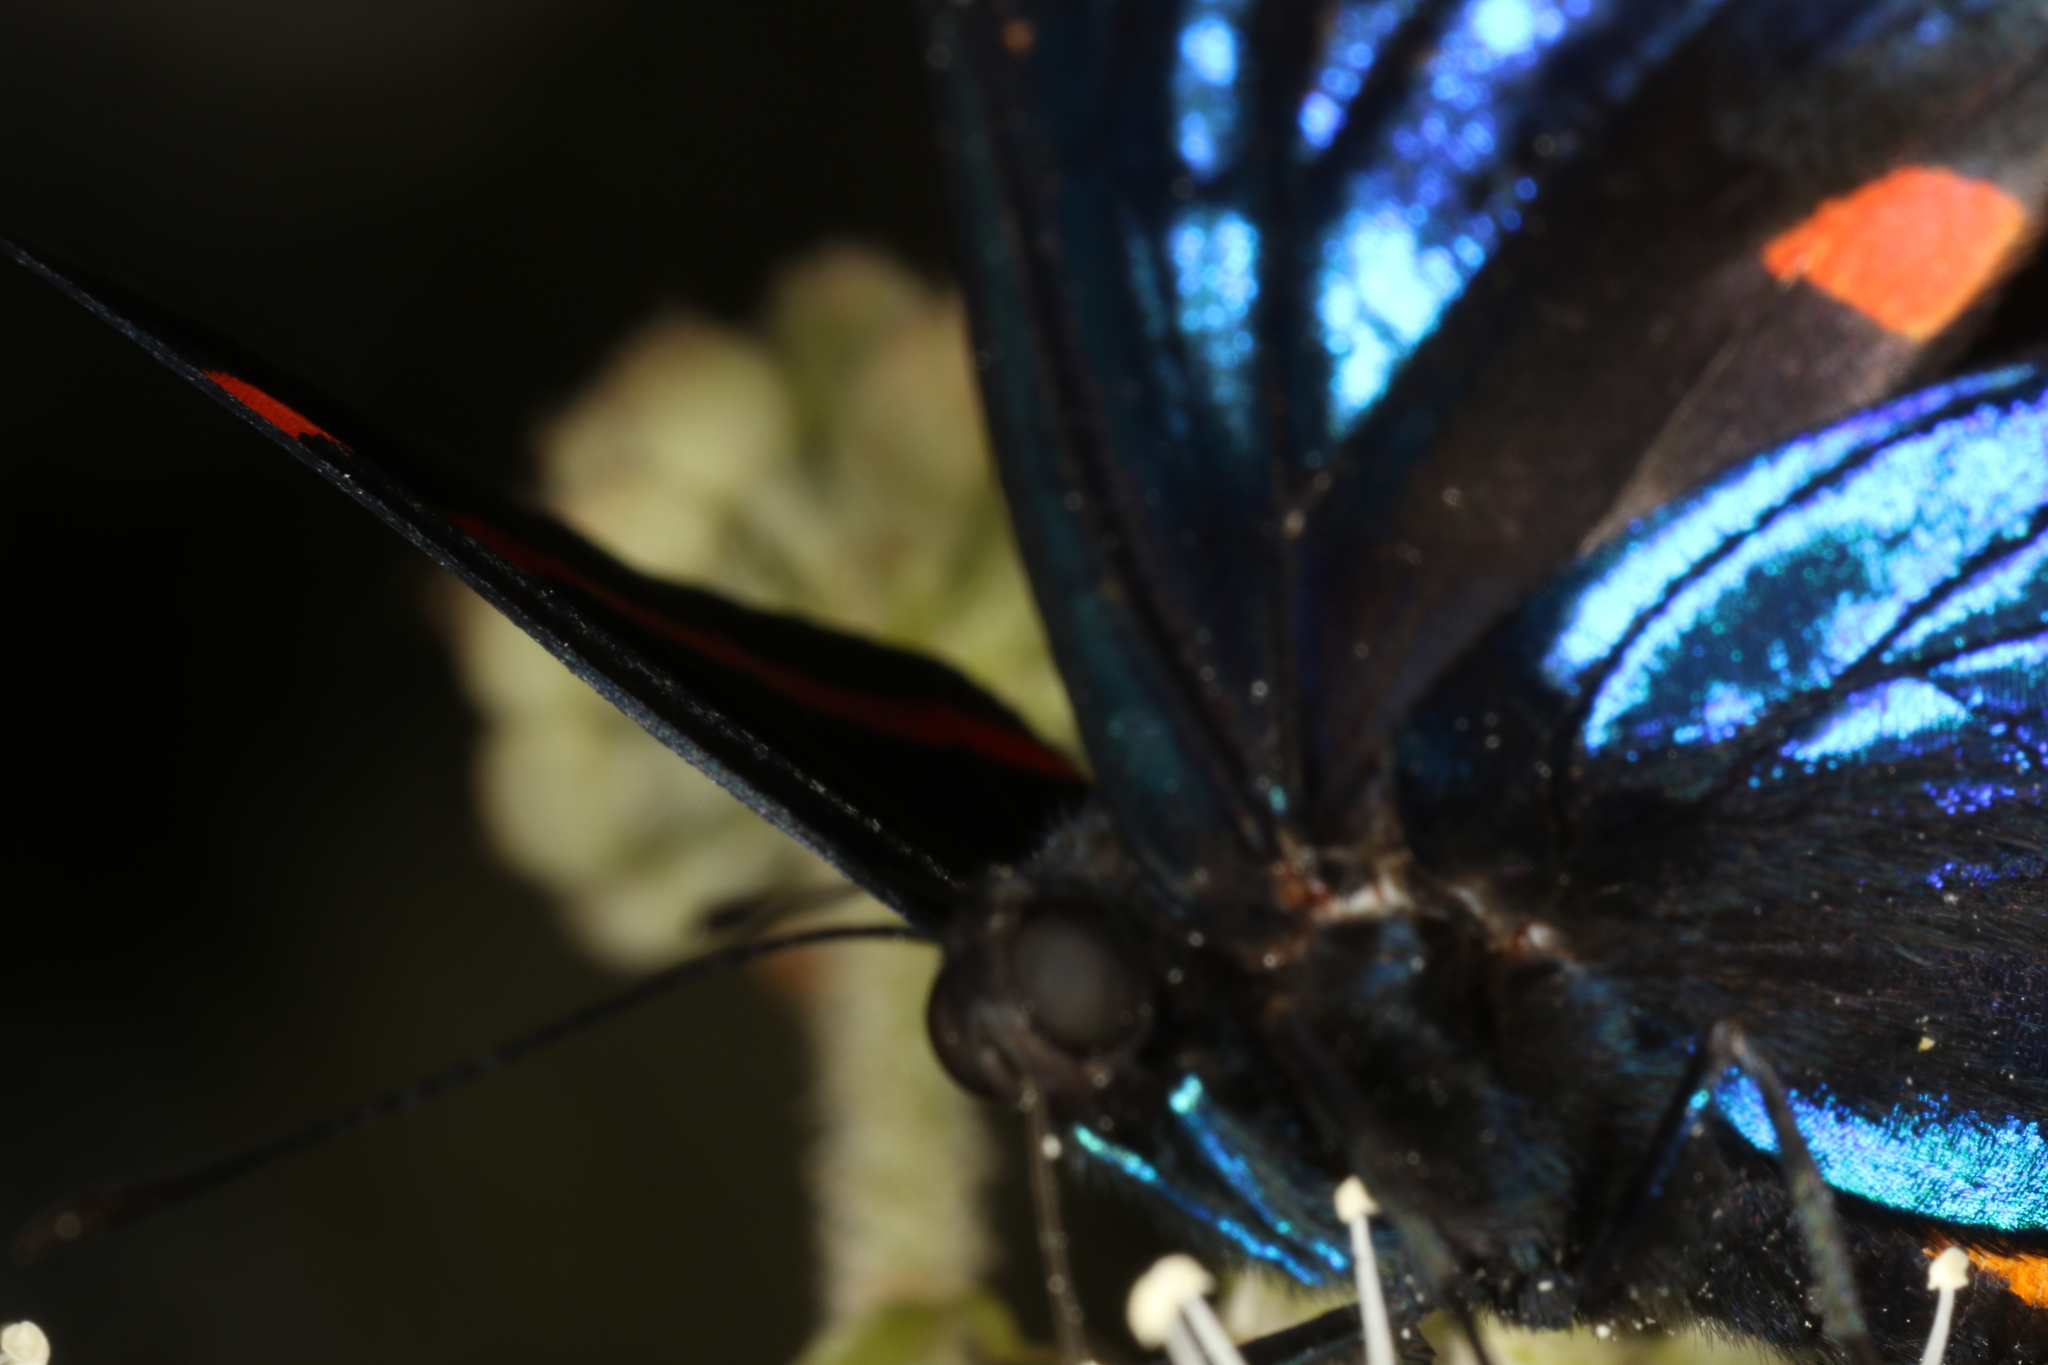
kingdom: Animalia
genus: Ancyluris
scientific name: Ancyluris aulestes
